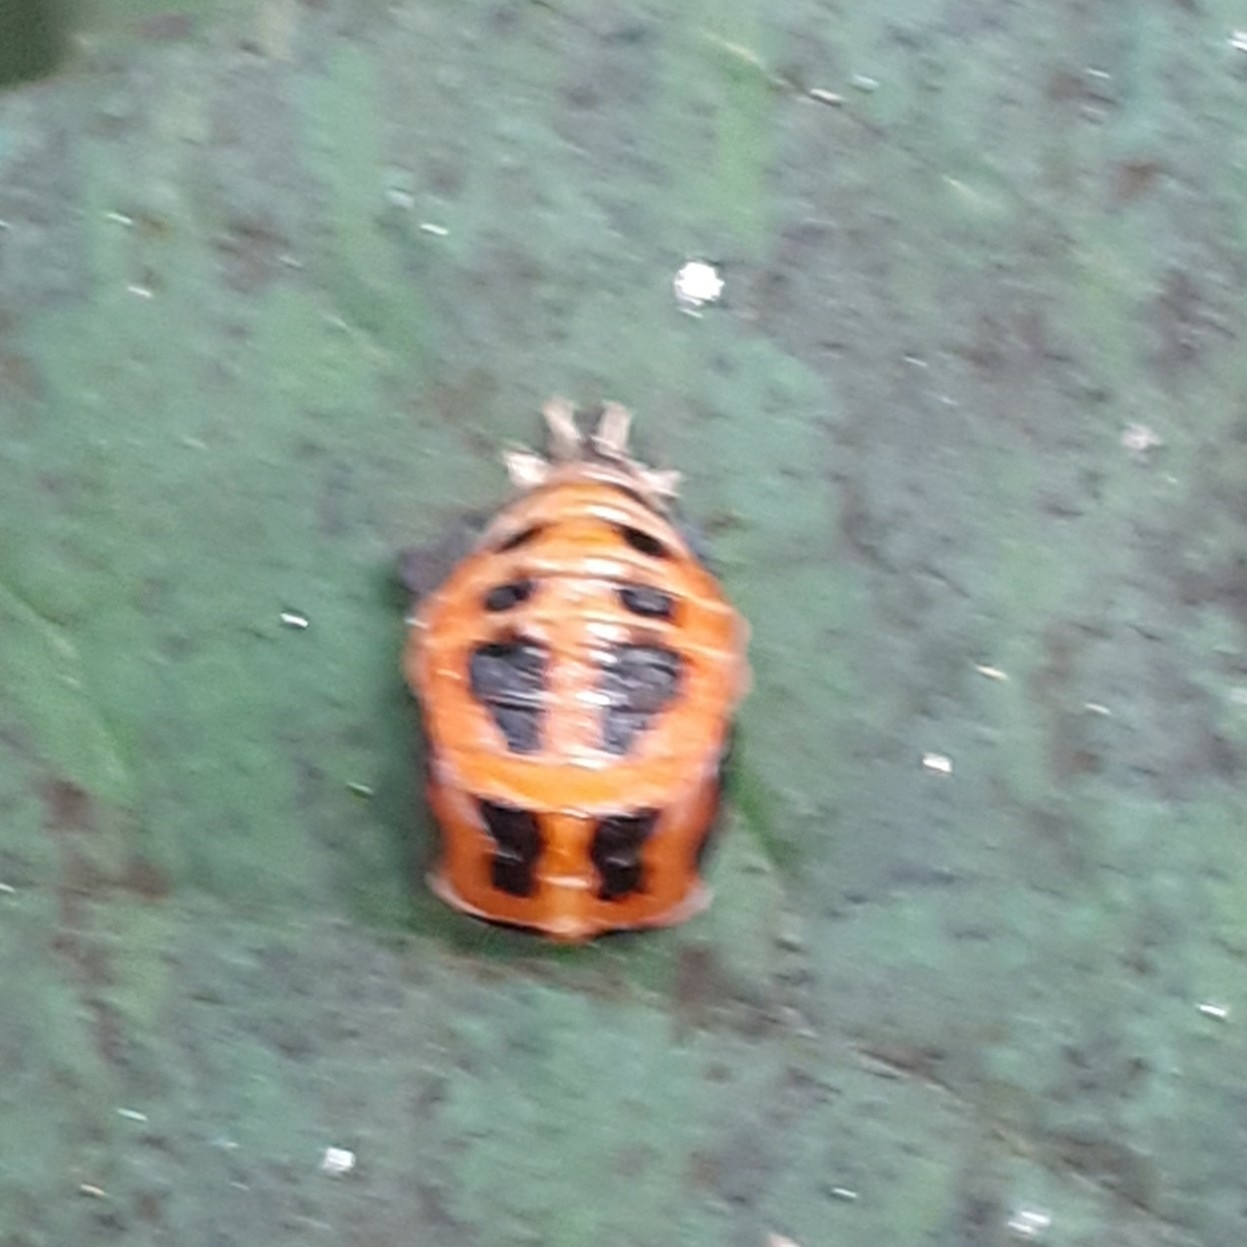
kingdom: Animalia
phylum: Arthropoda
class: Insecta
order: Coleoptera
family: Coccinellidae
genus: Harmonia
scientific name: Harmonia axyridis
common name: Harlequin ladybird
